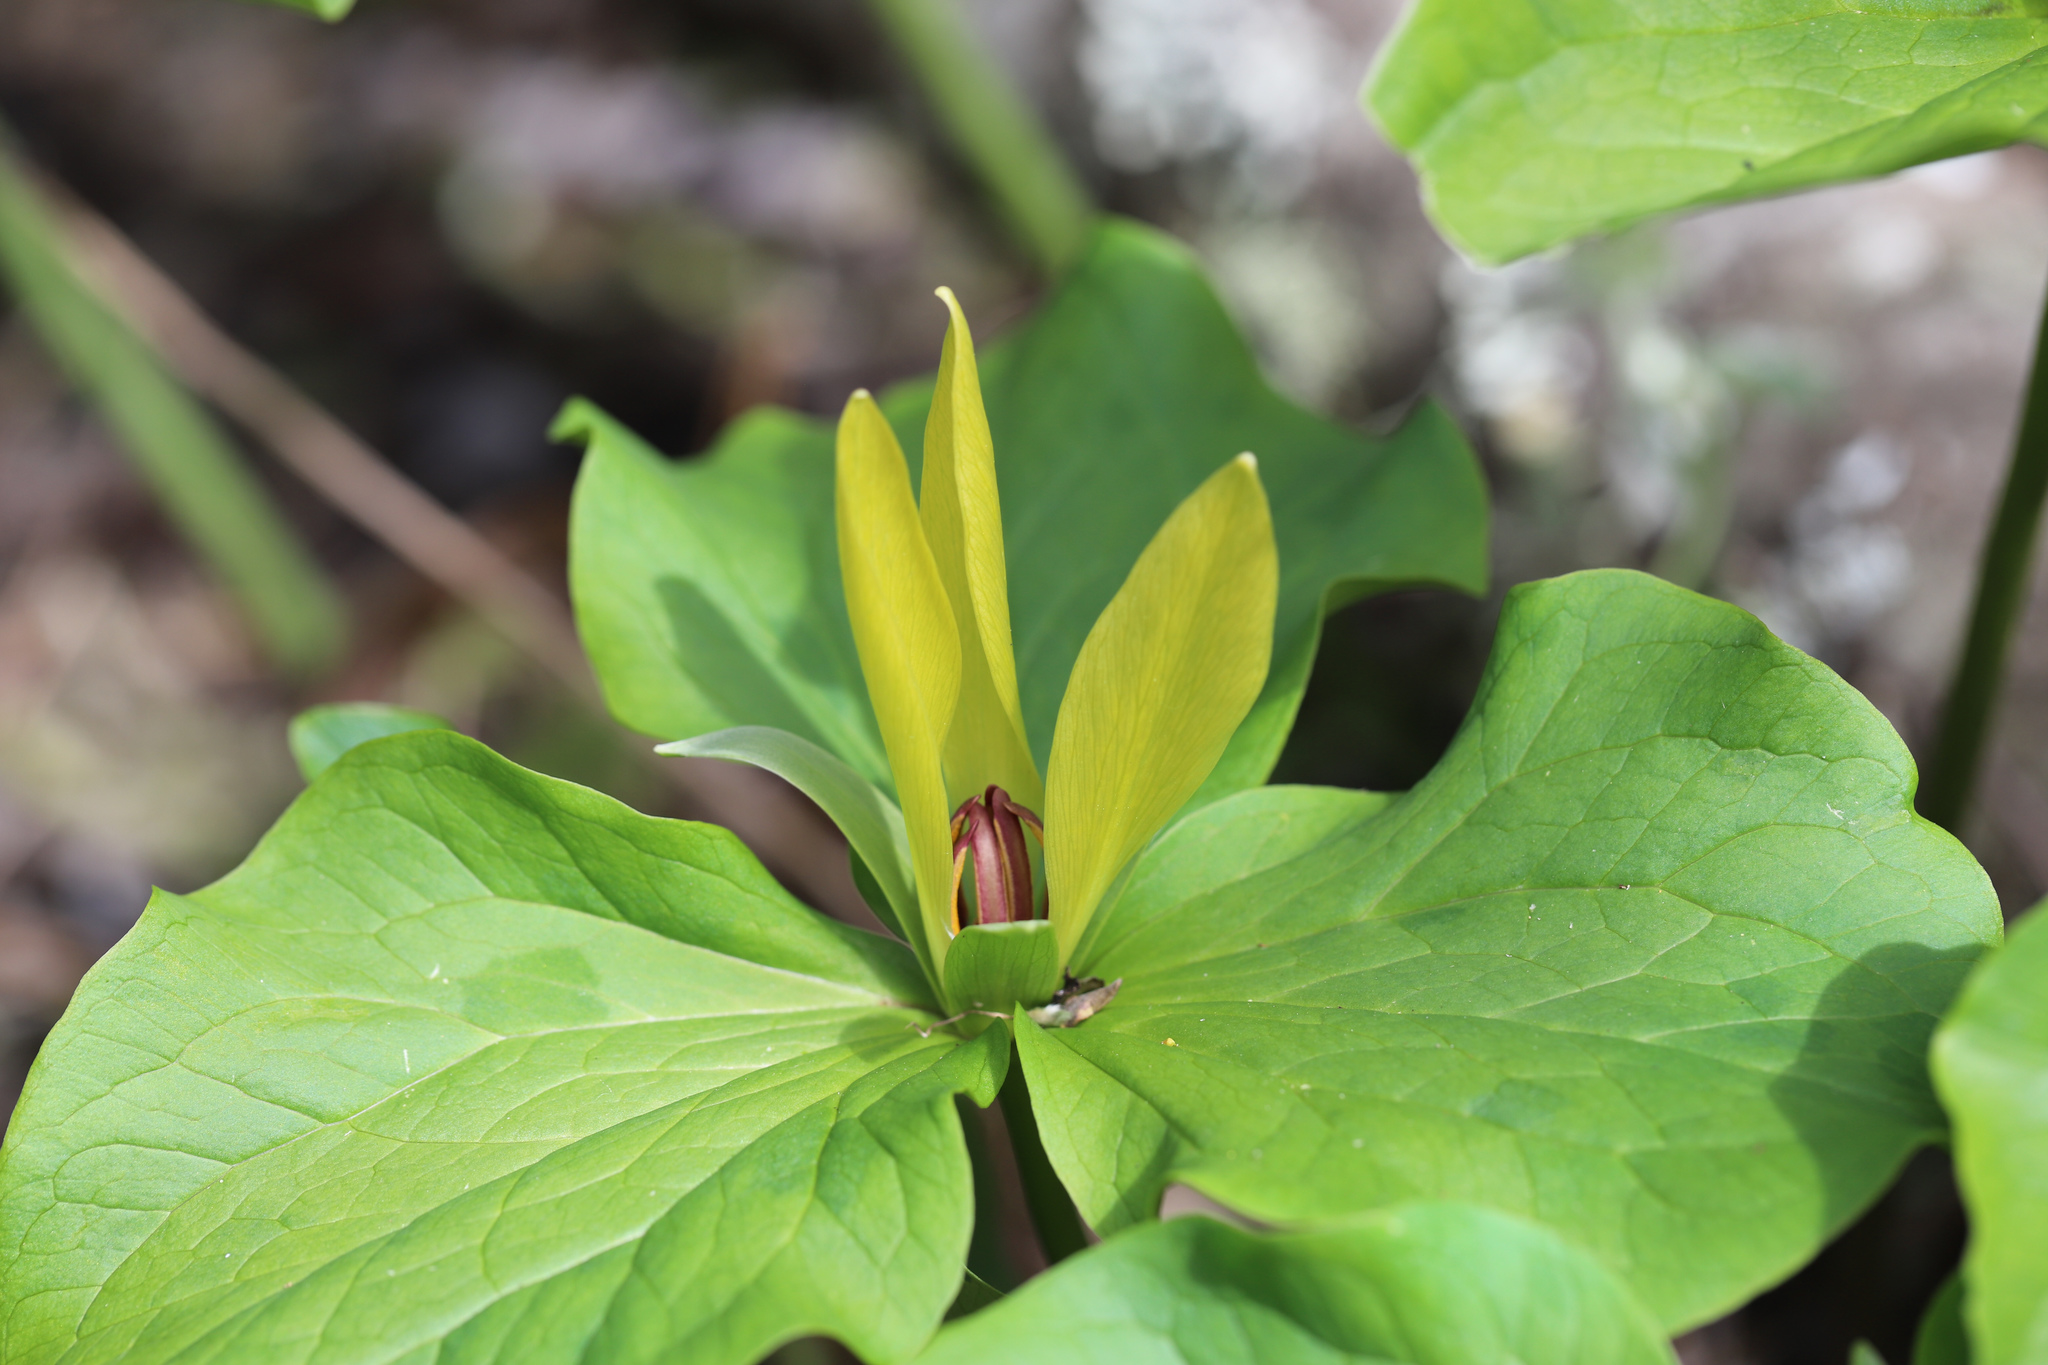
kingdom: Plantae
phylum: Tracheophyta
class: Liliopsida
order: Liliales
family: Melanthiaceae
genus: Trillium
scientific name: Trillium chloropetalum
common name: Giant trillium
